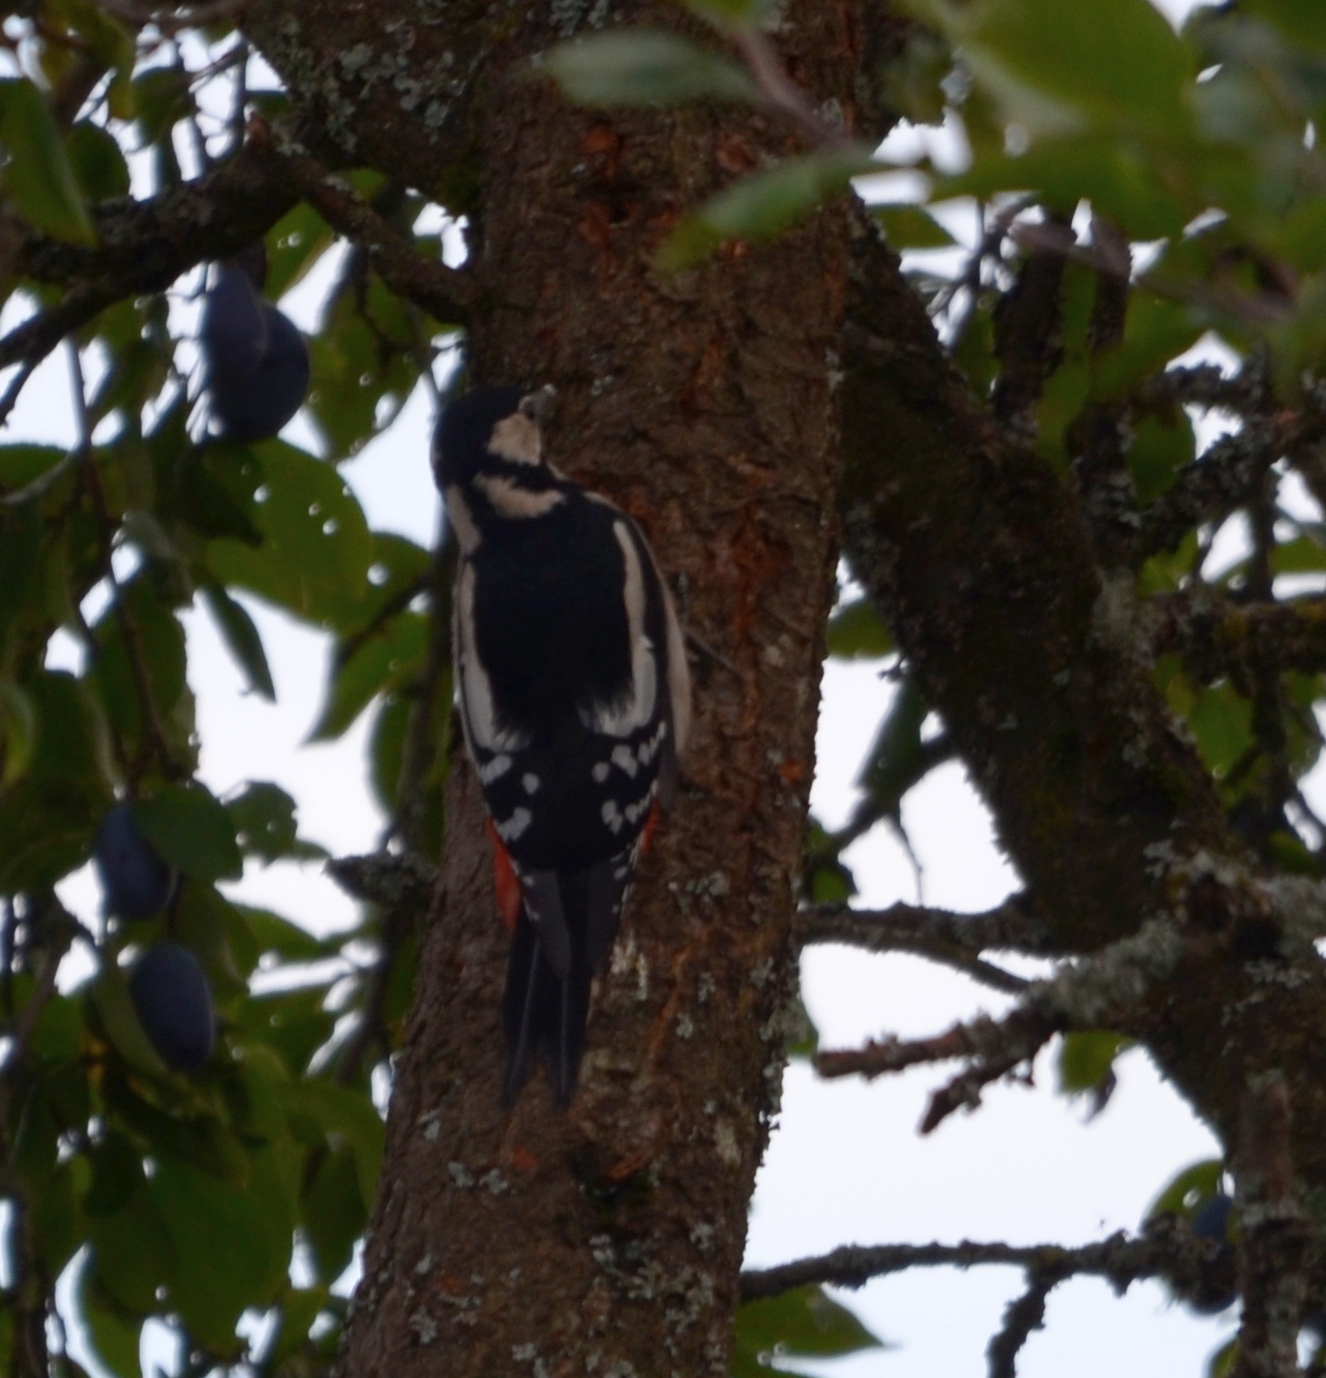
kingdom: Animalia
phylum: Chordata
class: Aves
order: Piciformes
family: Picidae
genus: Dendrocopos
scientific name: Dendrocopos major
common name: Great spotted woodpecker
